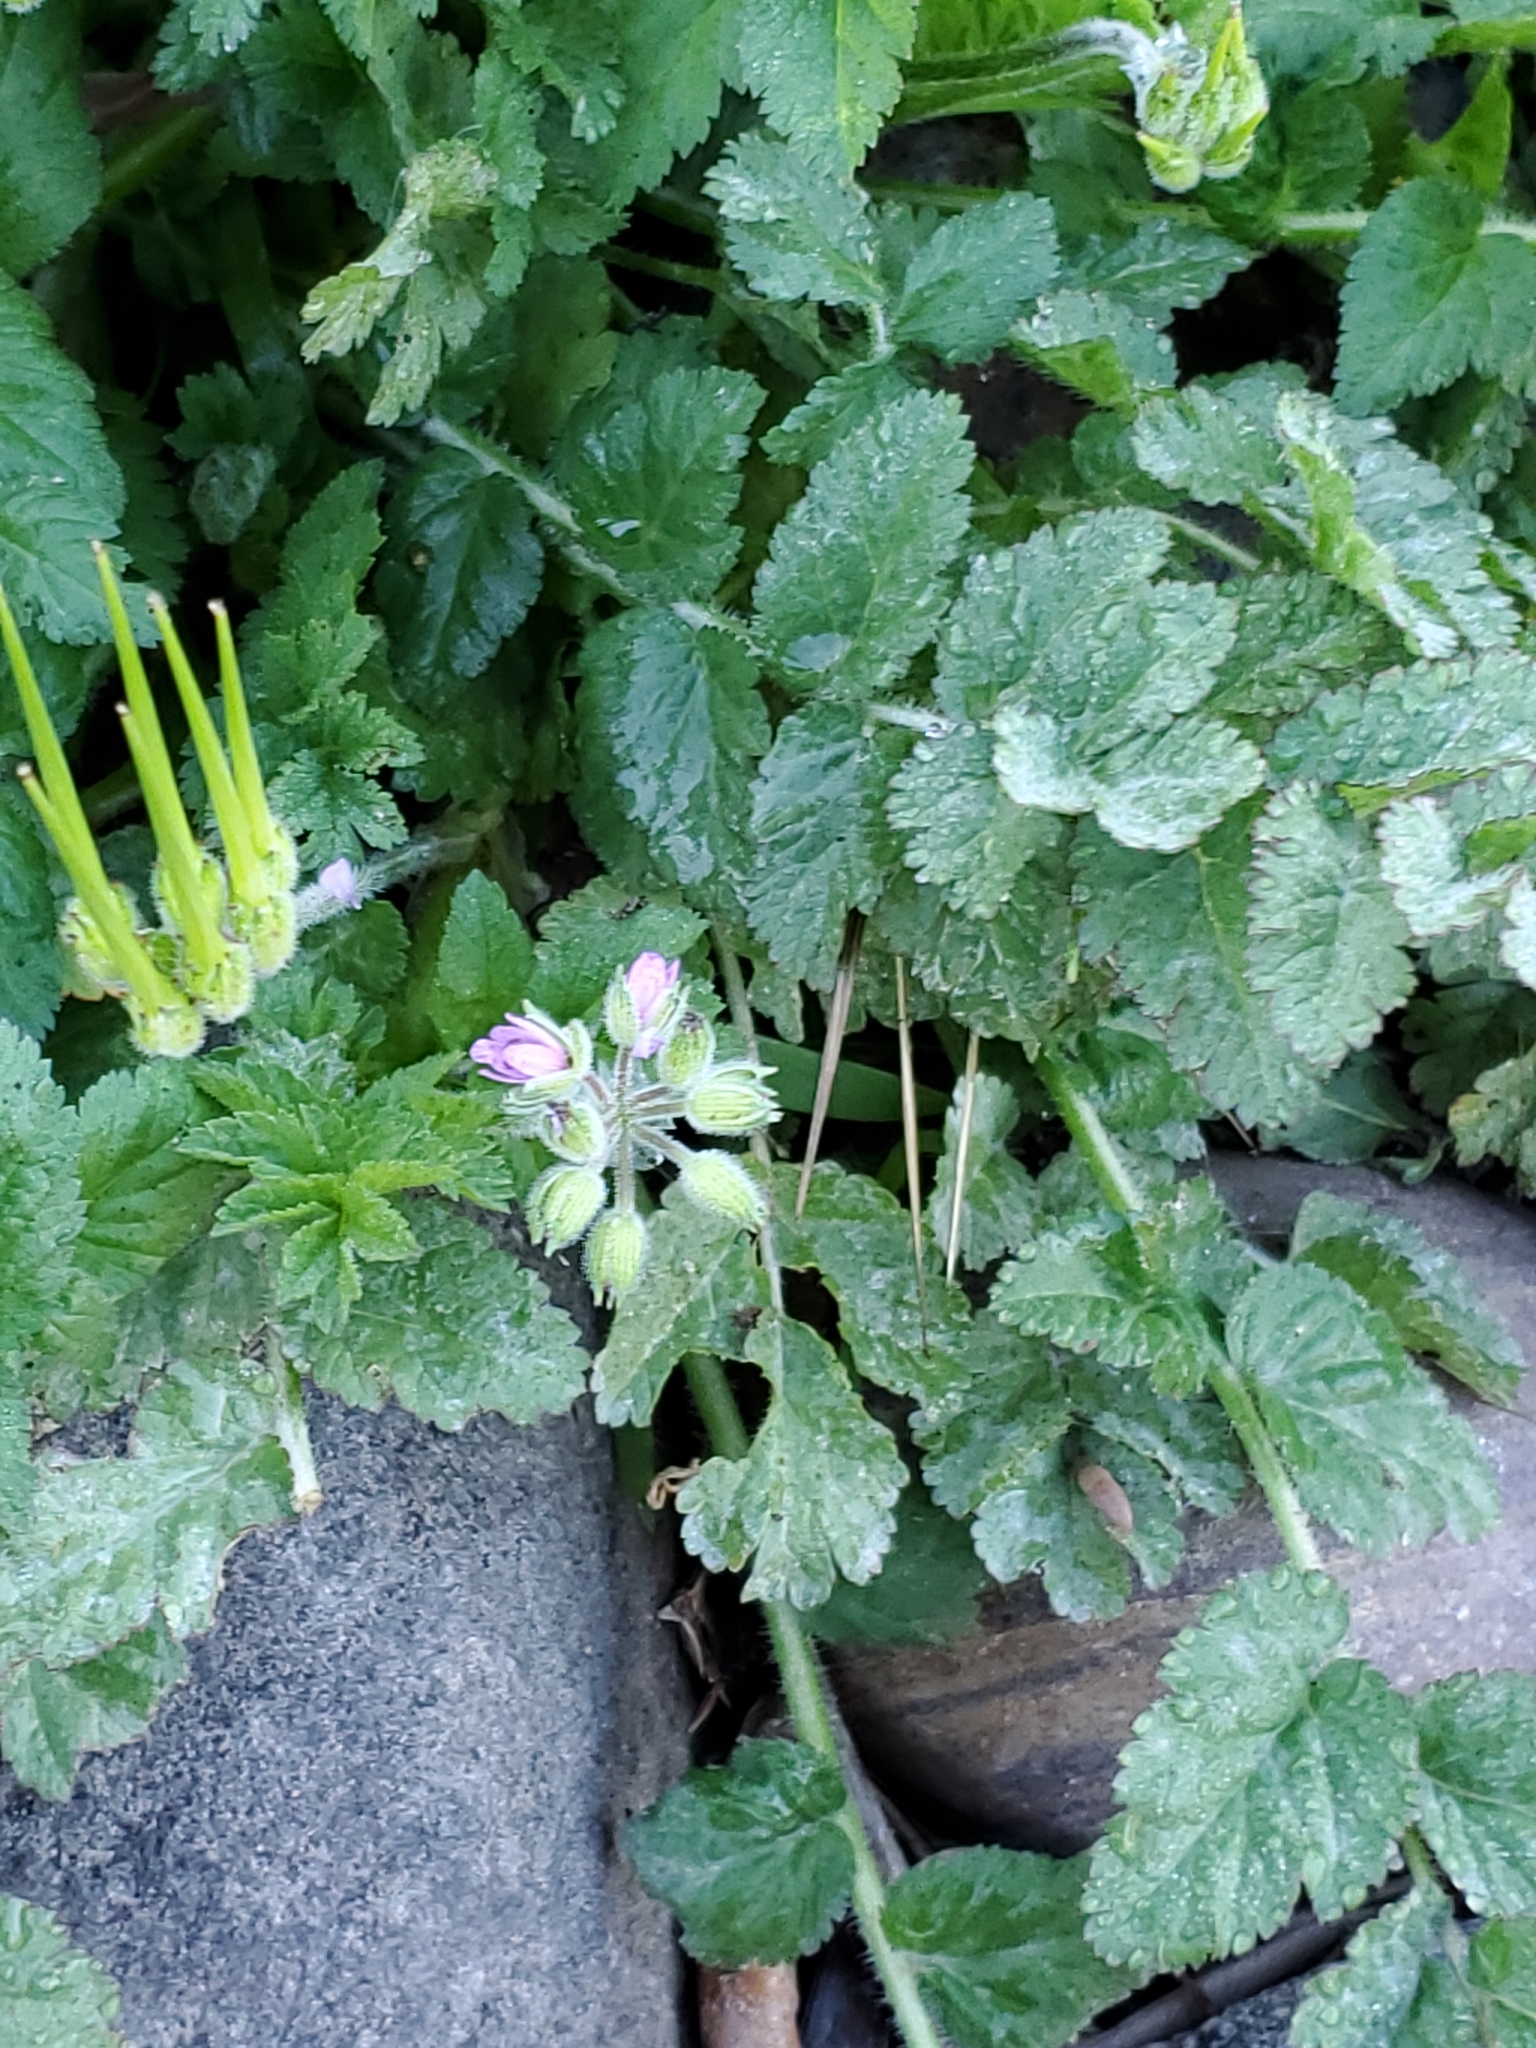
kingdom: Plantae
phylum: Tracheophyta
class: Magnoliopsida
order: Geraniales
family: Geraniaceae
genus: Erodium
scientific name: Erodium moschatum
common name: Musk stork's-bill
